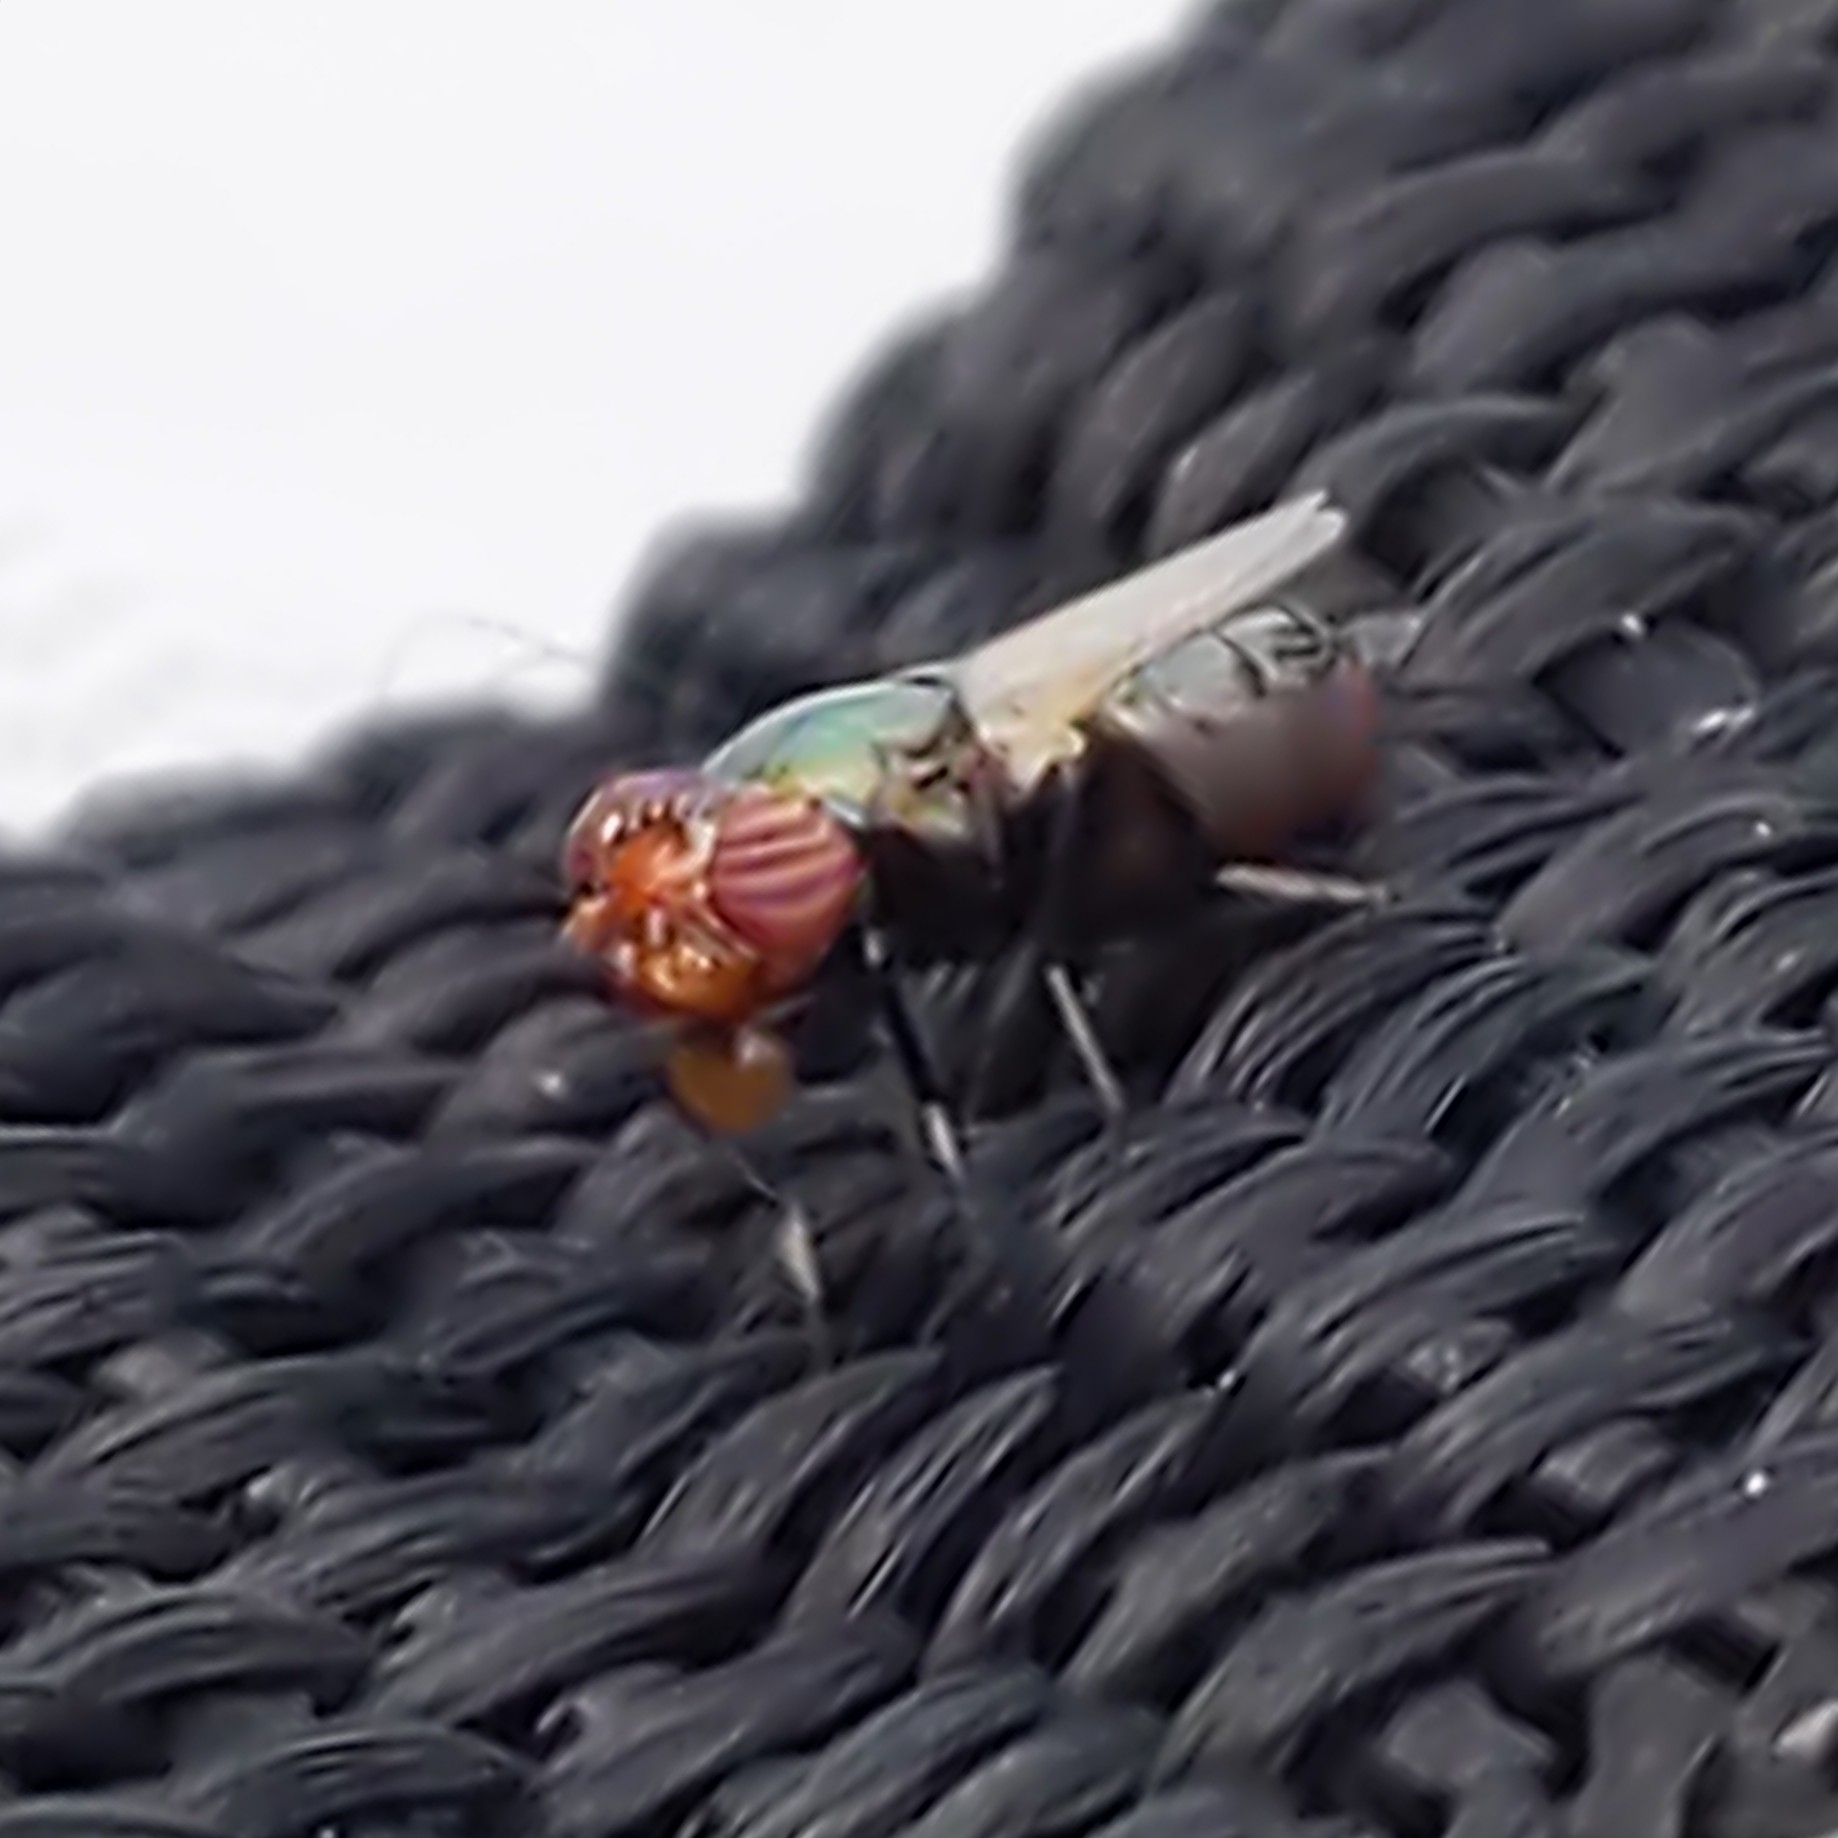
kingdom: Animalia
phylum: Arthropoda
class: Insecta
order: Diptera
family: Ulidiidae
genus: Physiphora
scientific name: Physiphora alceae
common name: Picture-winged fly
